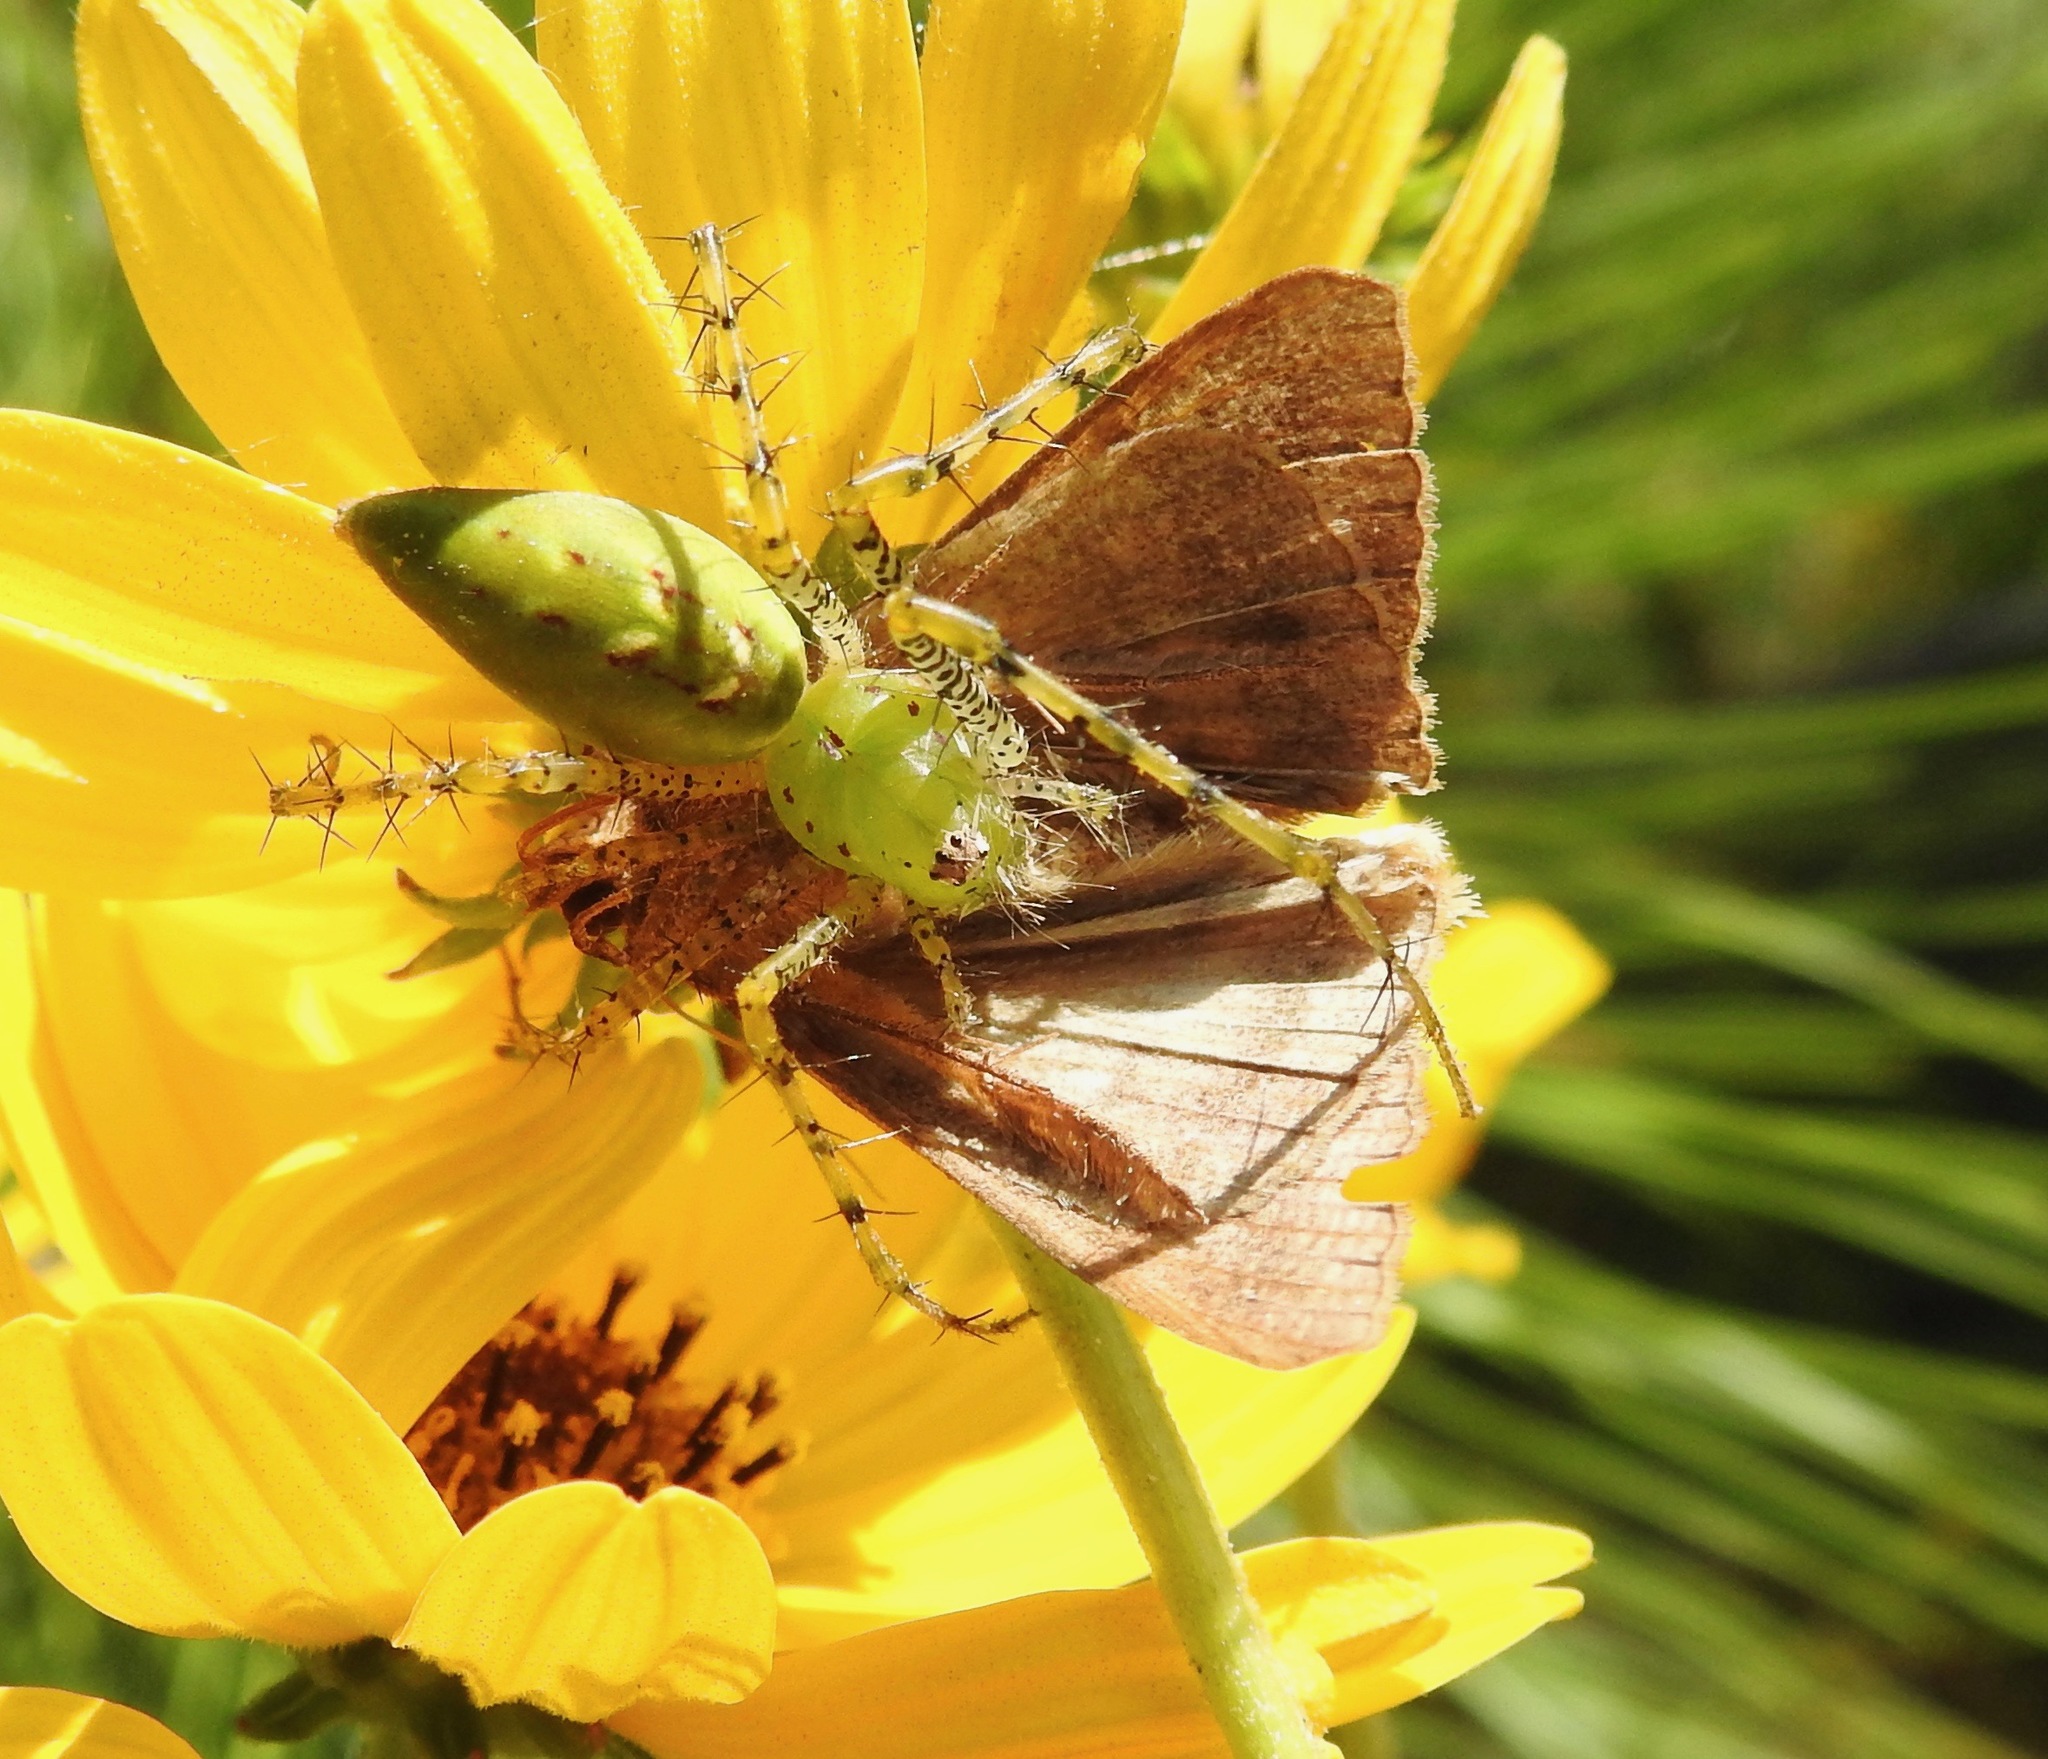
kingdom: Animalia
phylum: Arthropoda
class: Arachnida
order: Araneae
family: Oxyopidae
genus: Peucetia
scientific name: Peucetia viridans
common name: Lynx spiders
